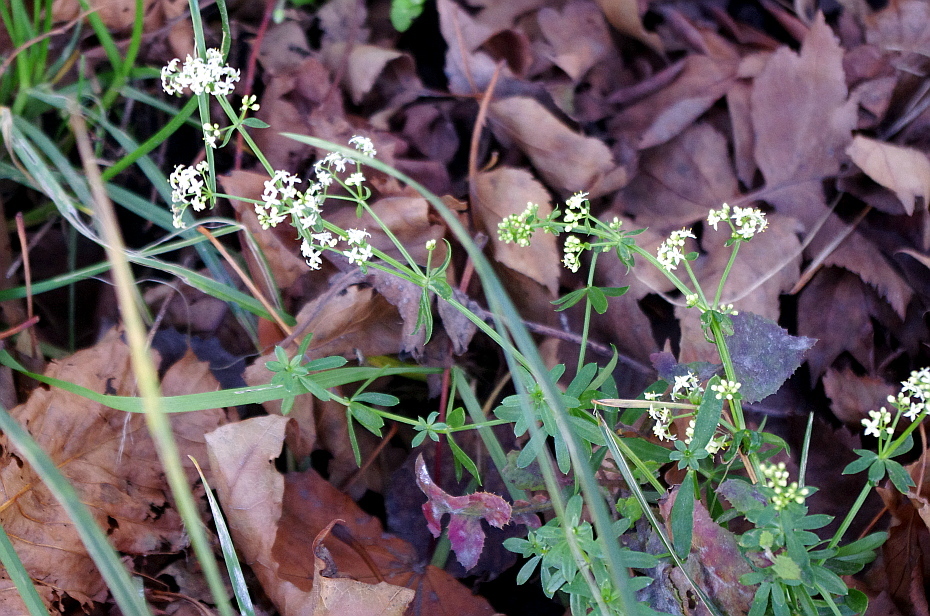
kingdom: Plantae
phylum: Tracheophyta
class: Magnoliopsida
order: Gentianales
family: Rubiaceae
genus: Galium
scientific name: Galium mollugo
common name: Hedge bedstraw
